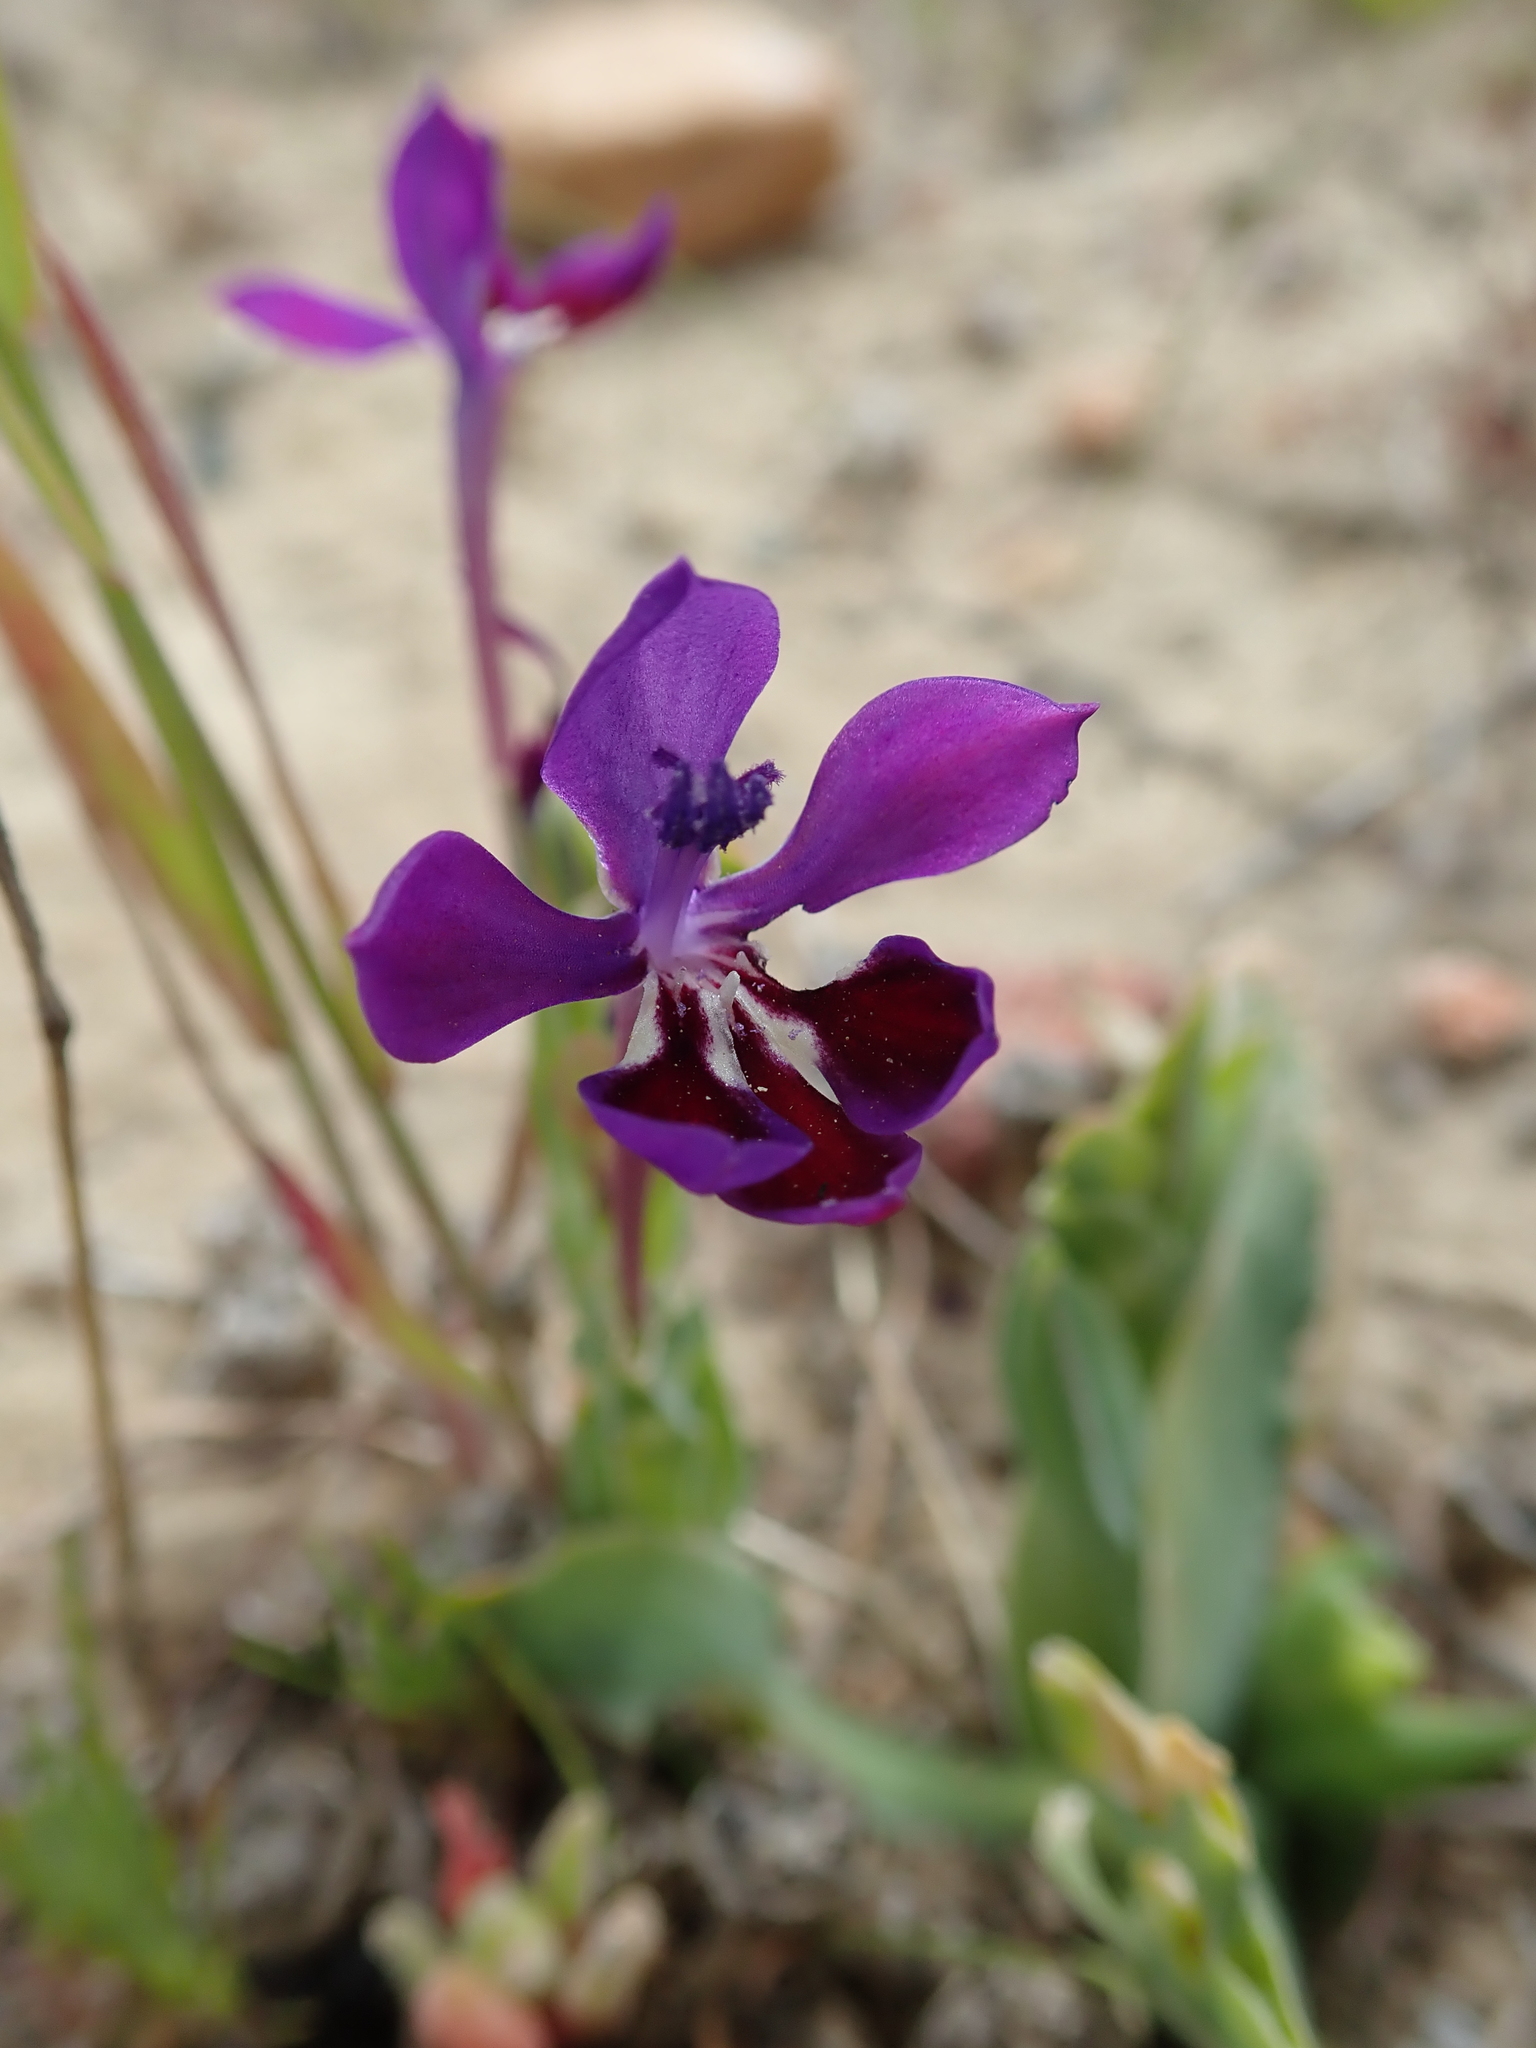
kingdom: Plantae
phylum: Tracheophyta
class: Liliopsida
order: Asparagales
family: Iridaceae
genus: Lapeirousia
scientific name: Lapeirousia jacquinii
